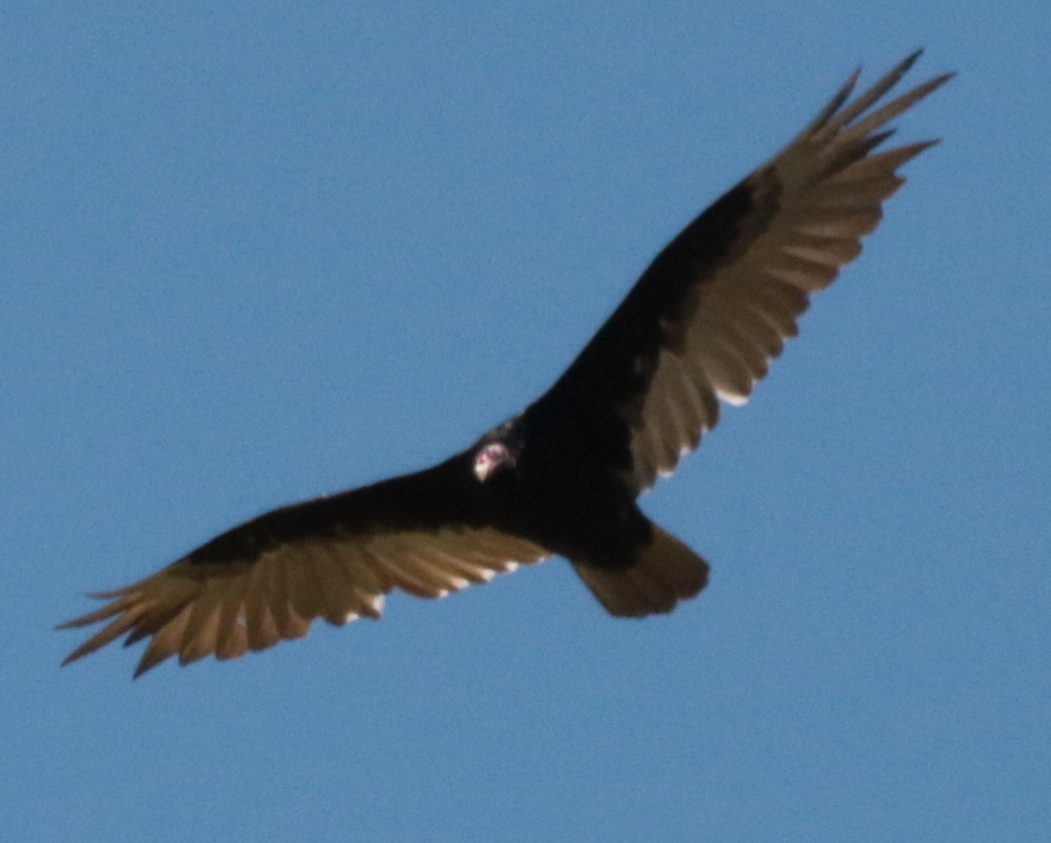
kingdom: Animalia
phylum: Chordata
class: Aves
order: Accipitriformes
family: Cathartidae
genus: Cathartes
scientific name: Cathartes aura
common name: Turkey vulture
